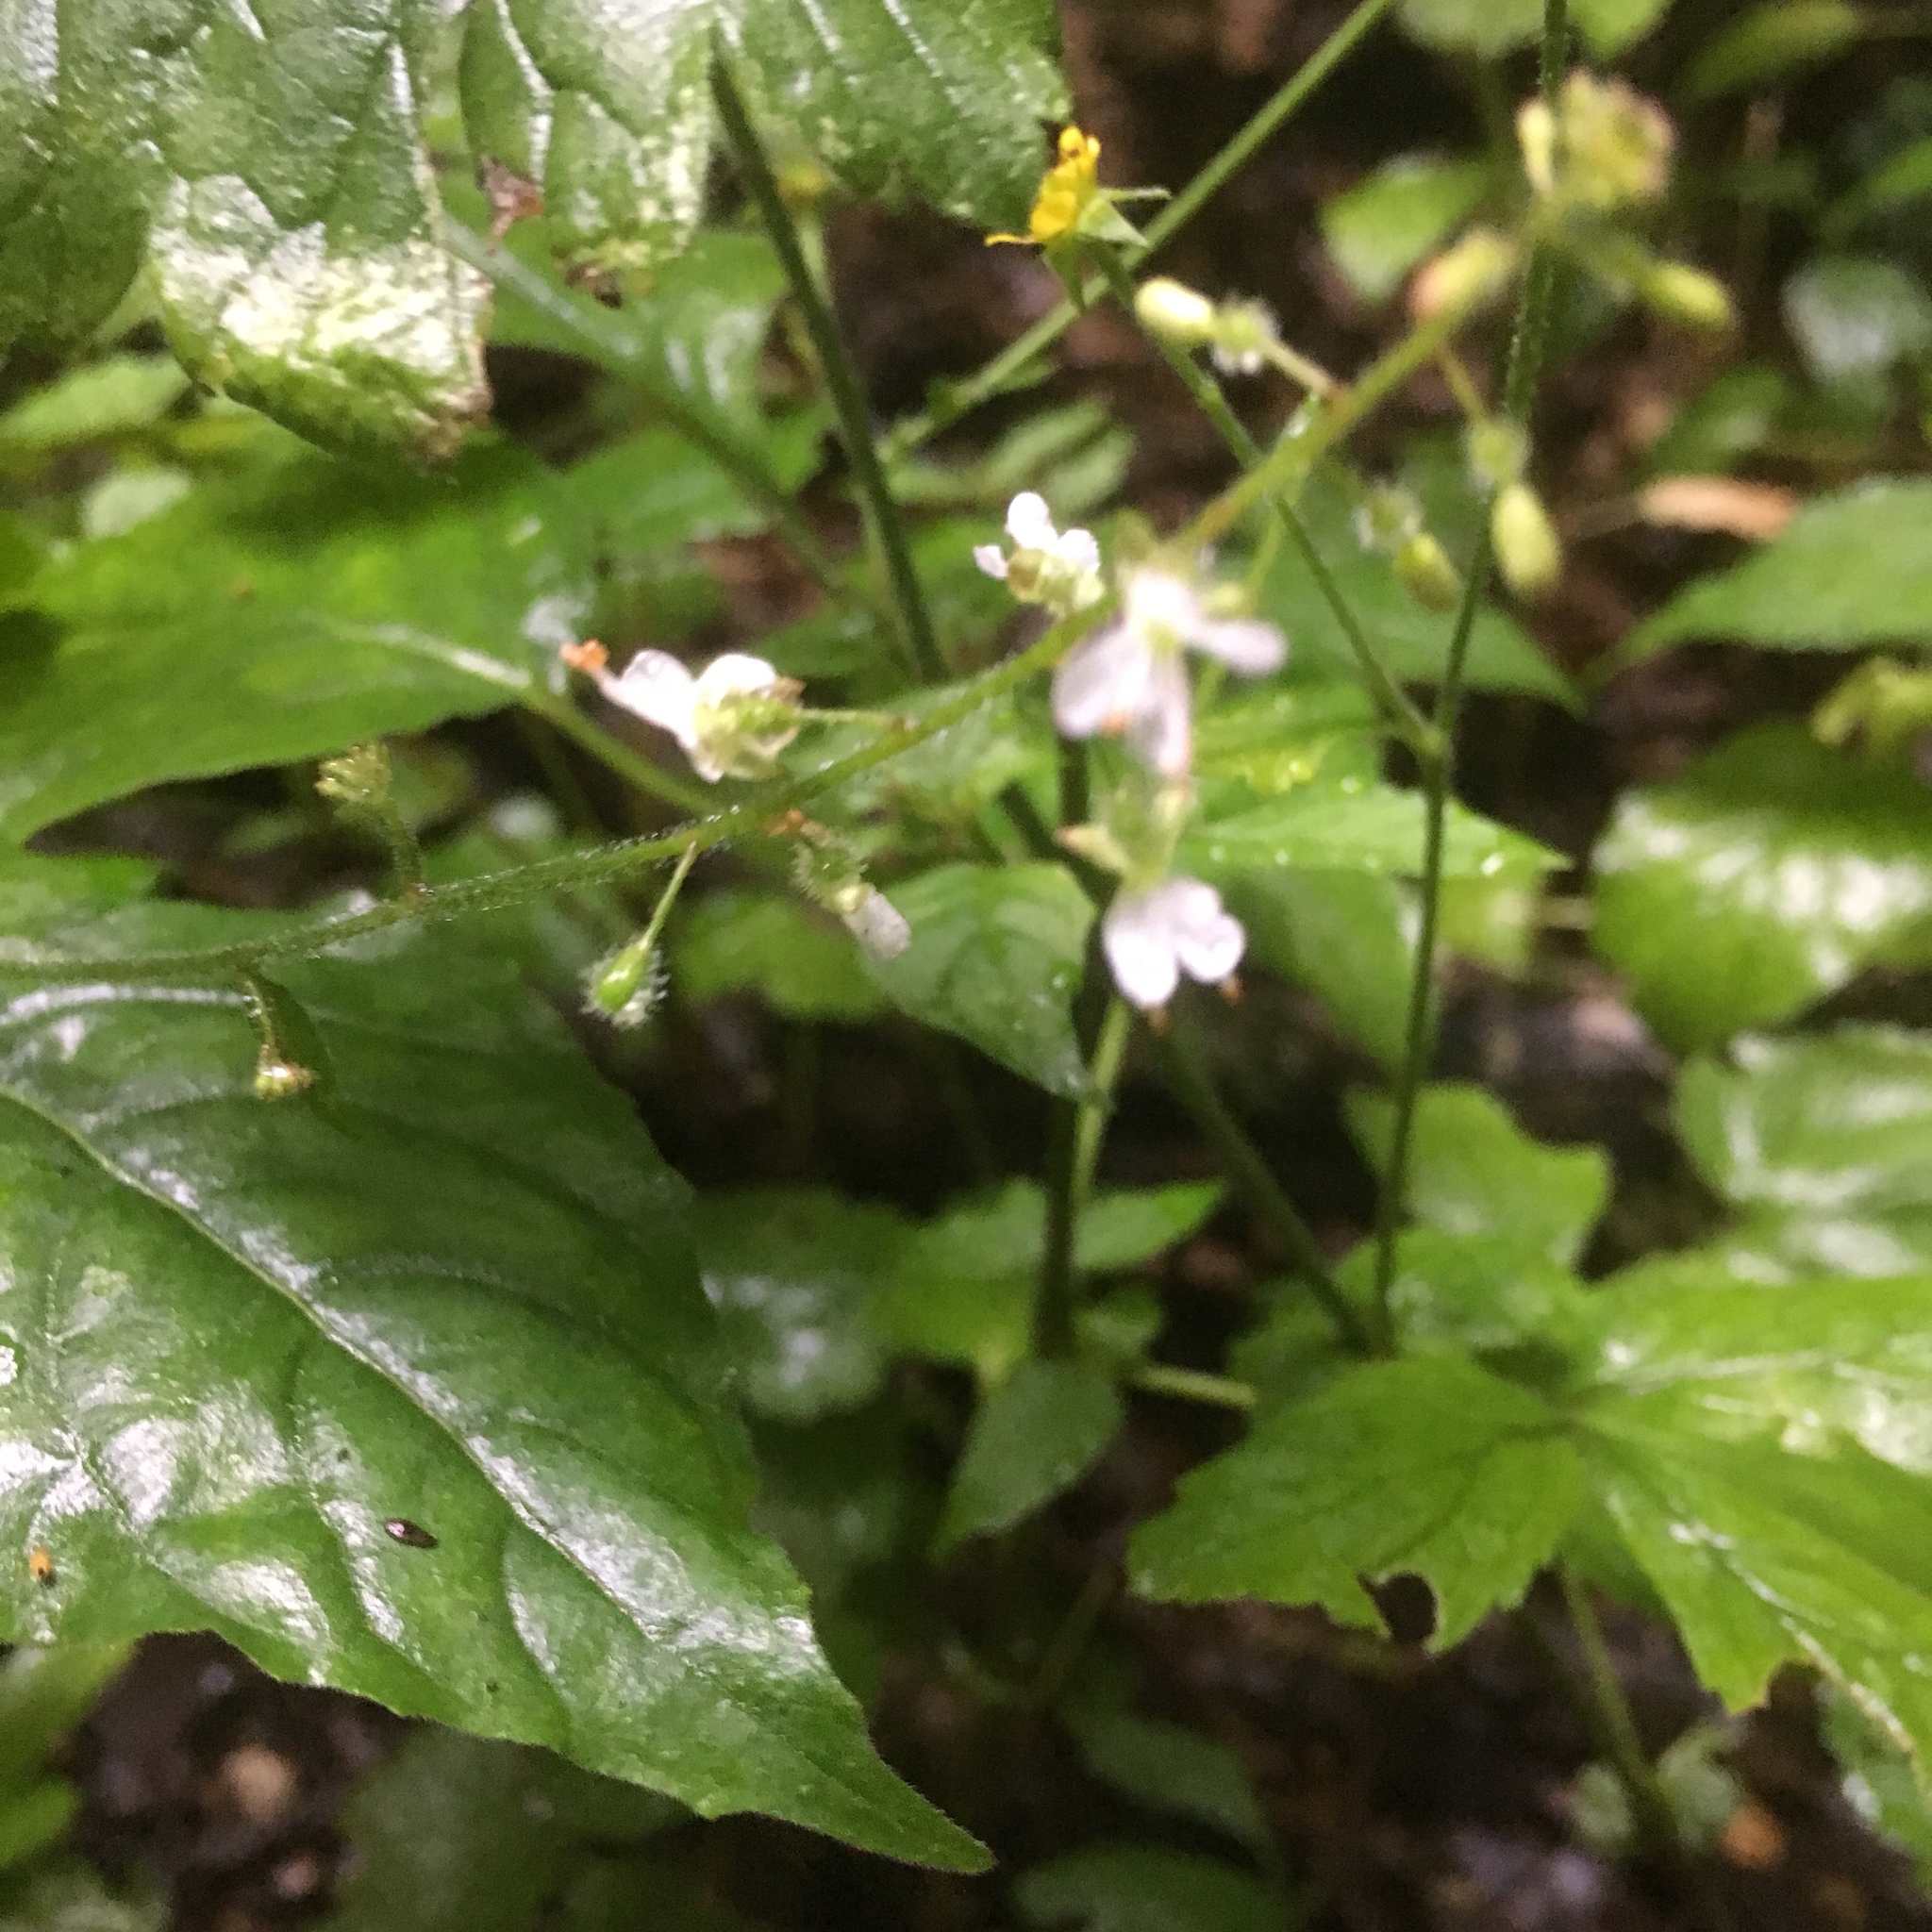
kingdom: Plantae
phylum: Tracheophyta
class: Magnoliopsida
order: Myrtales
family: Onagraceae
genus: Circaea
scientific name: Circaea lutetiana
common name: Enchanter's-nightshade
